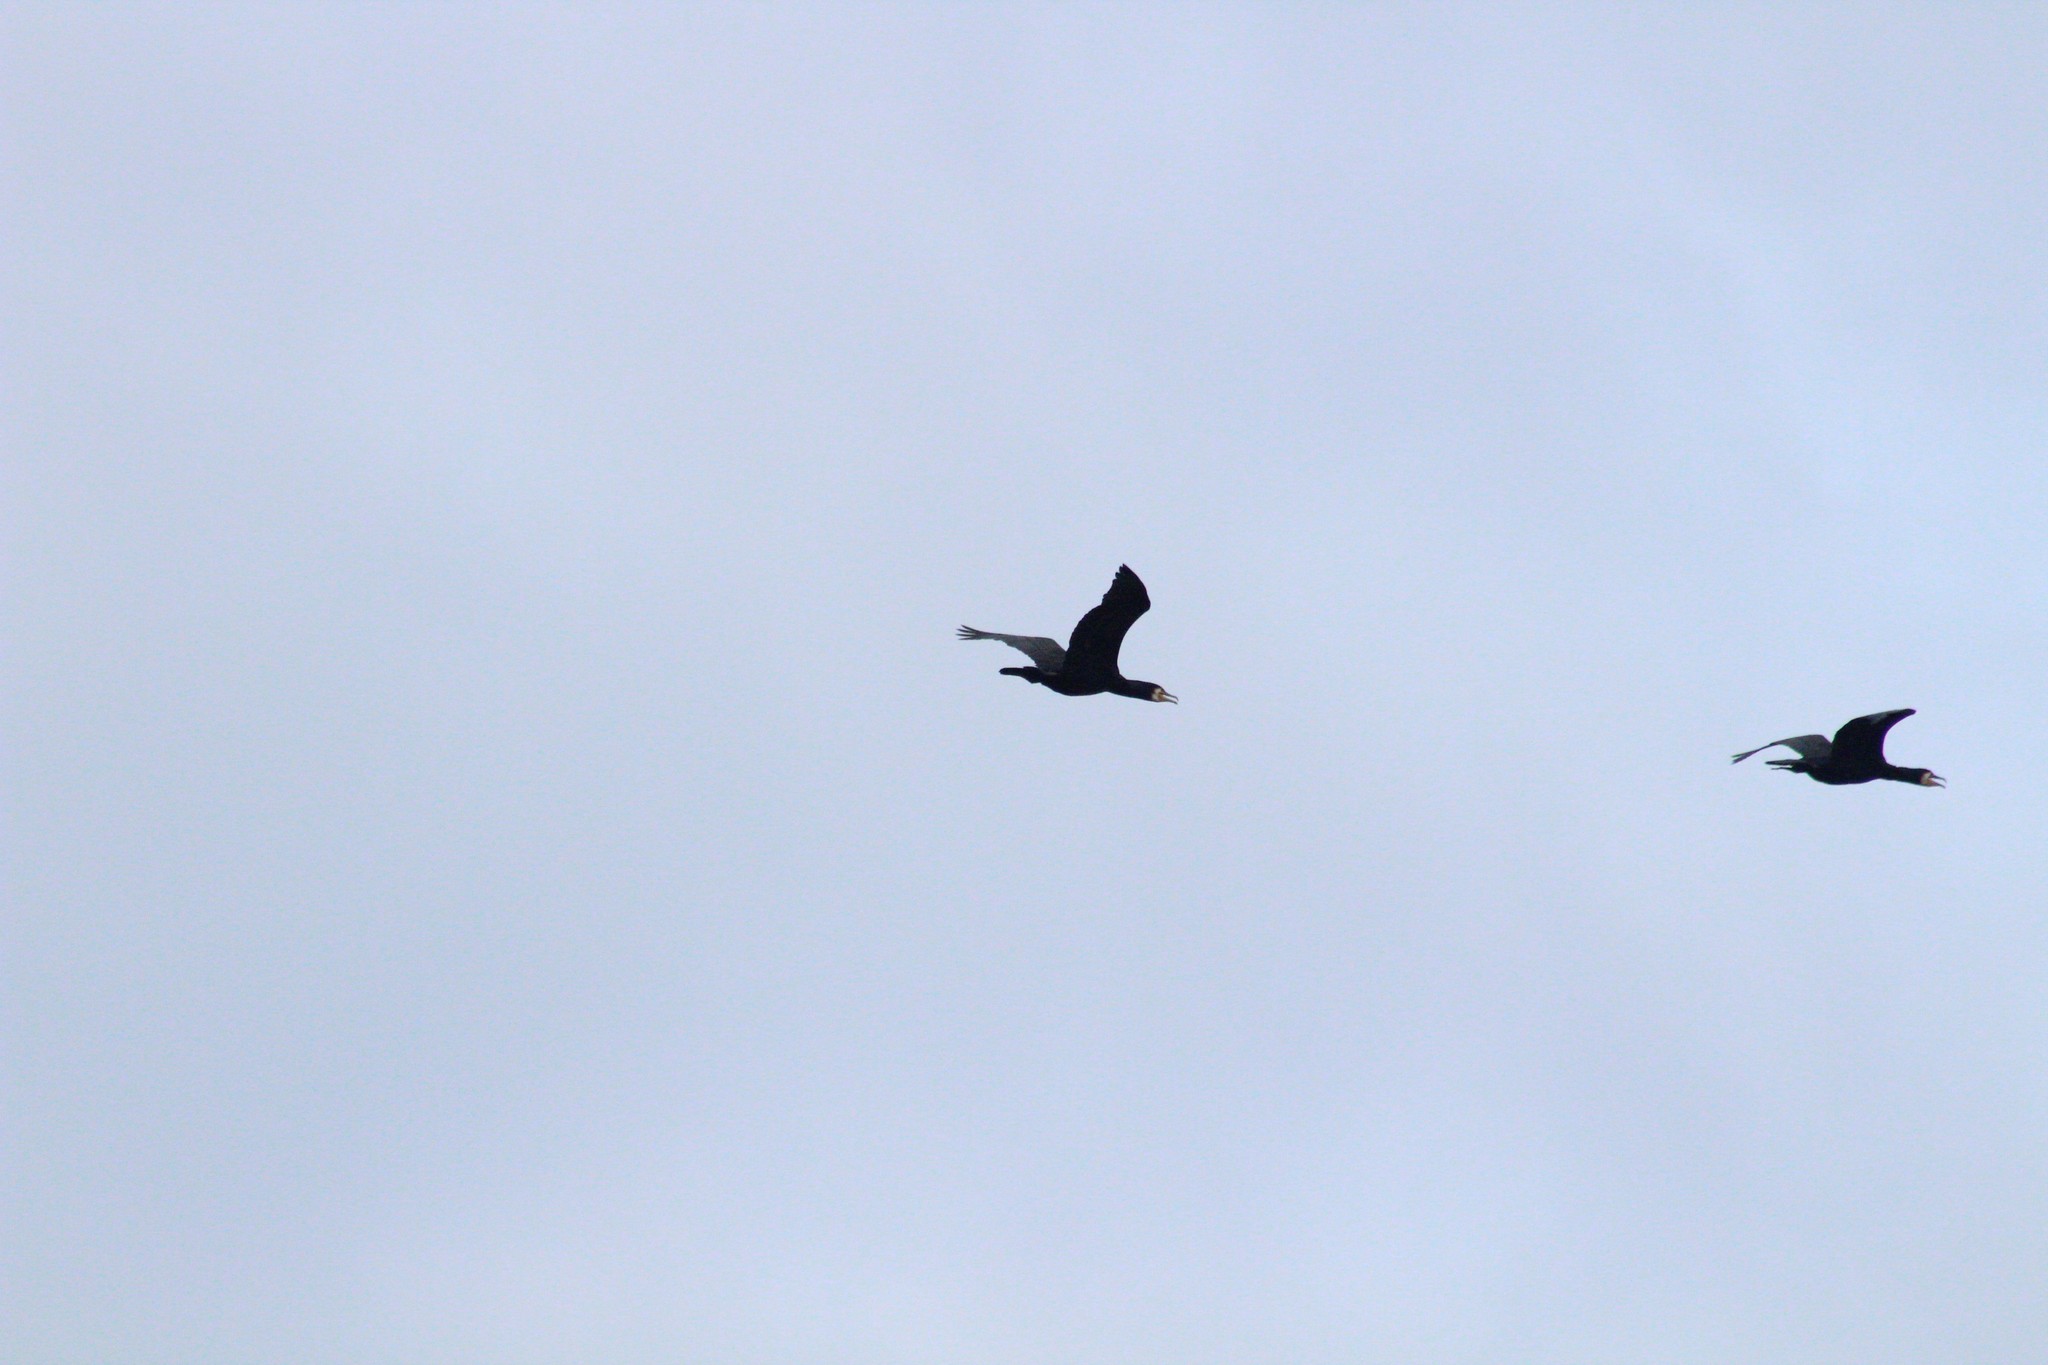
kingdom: Animalia
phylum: Chordata
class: Aves
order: Suliformes
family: Phalacrocoracidae
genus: Phalacrocorax
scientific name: Phalacrocorax carbo
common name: Great cormorant
